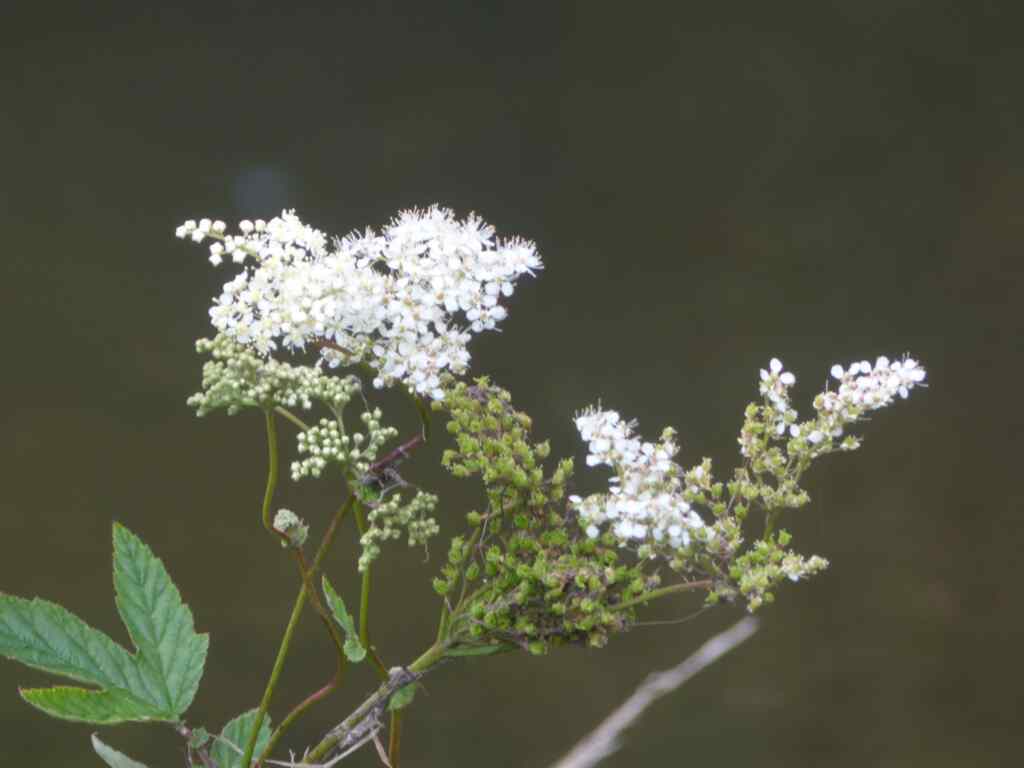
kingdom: Plantae
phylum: Tracheophyta
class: Magnoliopsida
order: Rosales
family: Rosaceae
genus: Filipendula
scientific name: Filipendula ulmaria
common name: Meadowsweet
